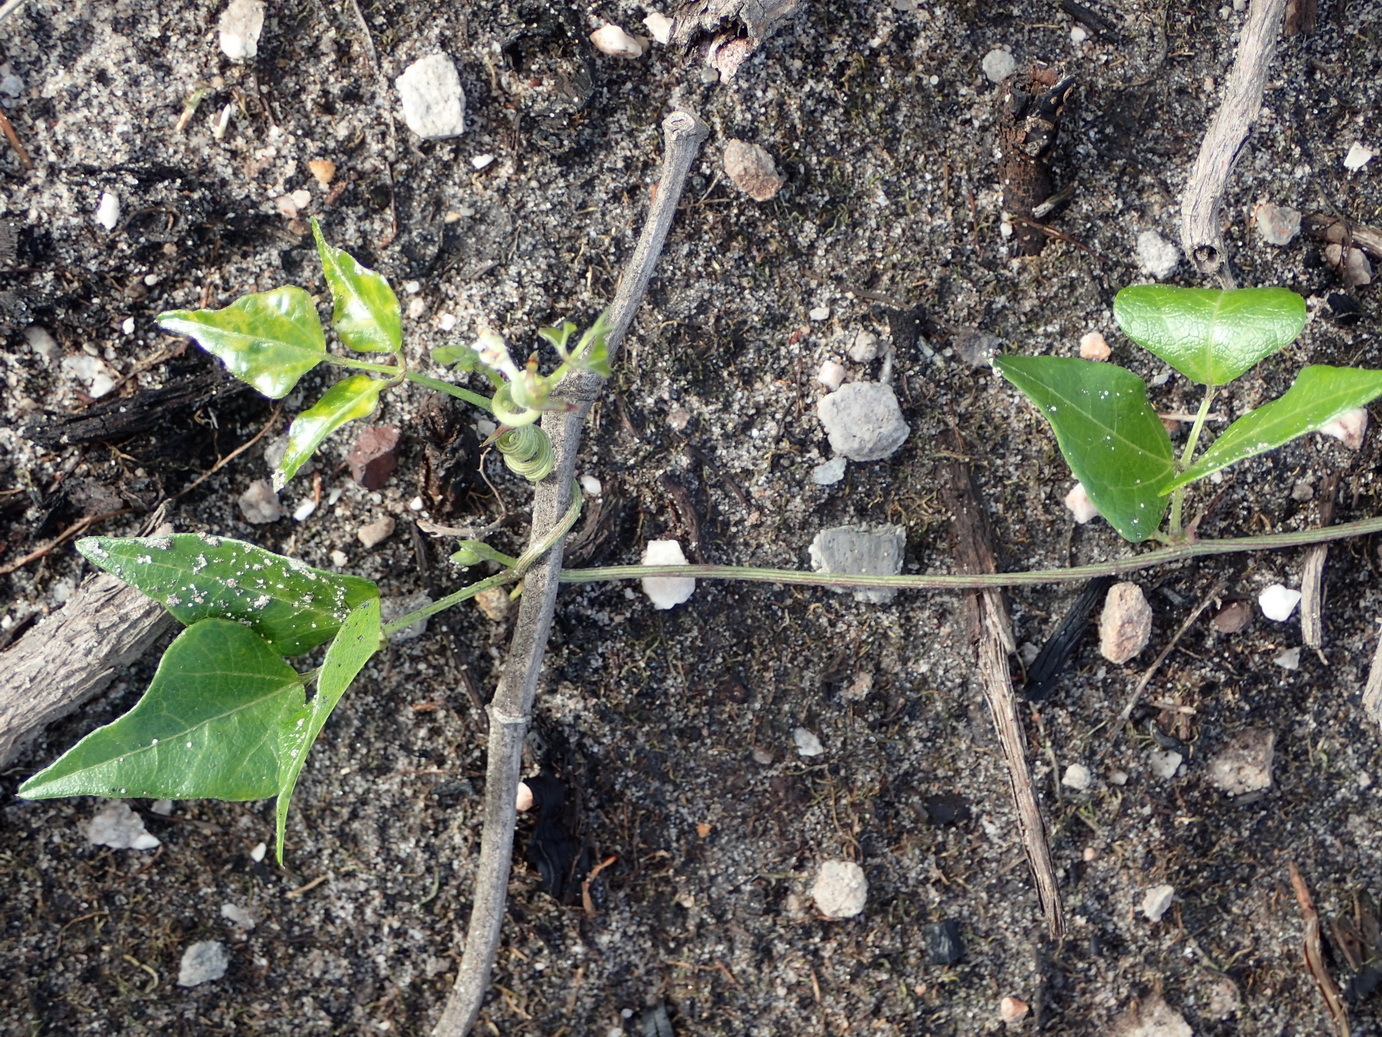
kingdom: Plantae
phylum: Tracheophyta
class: Magnoliopsida
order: Fabales
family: Fabaceae
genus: Dipogon
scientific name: Dipogon lignosus
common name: Okie bean
